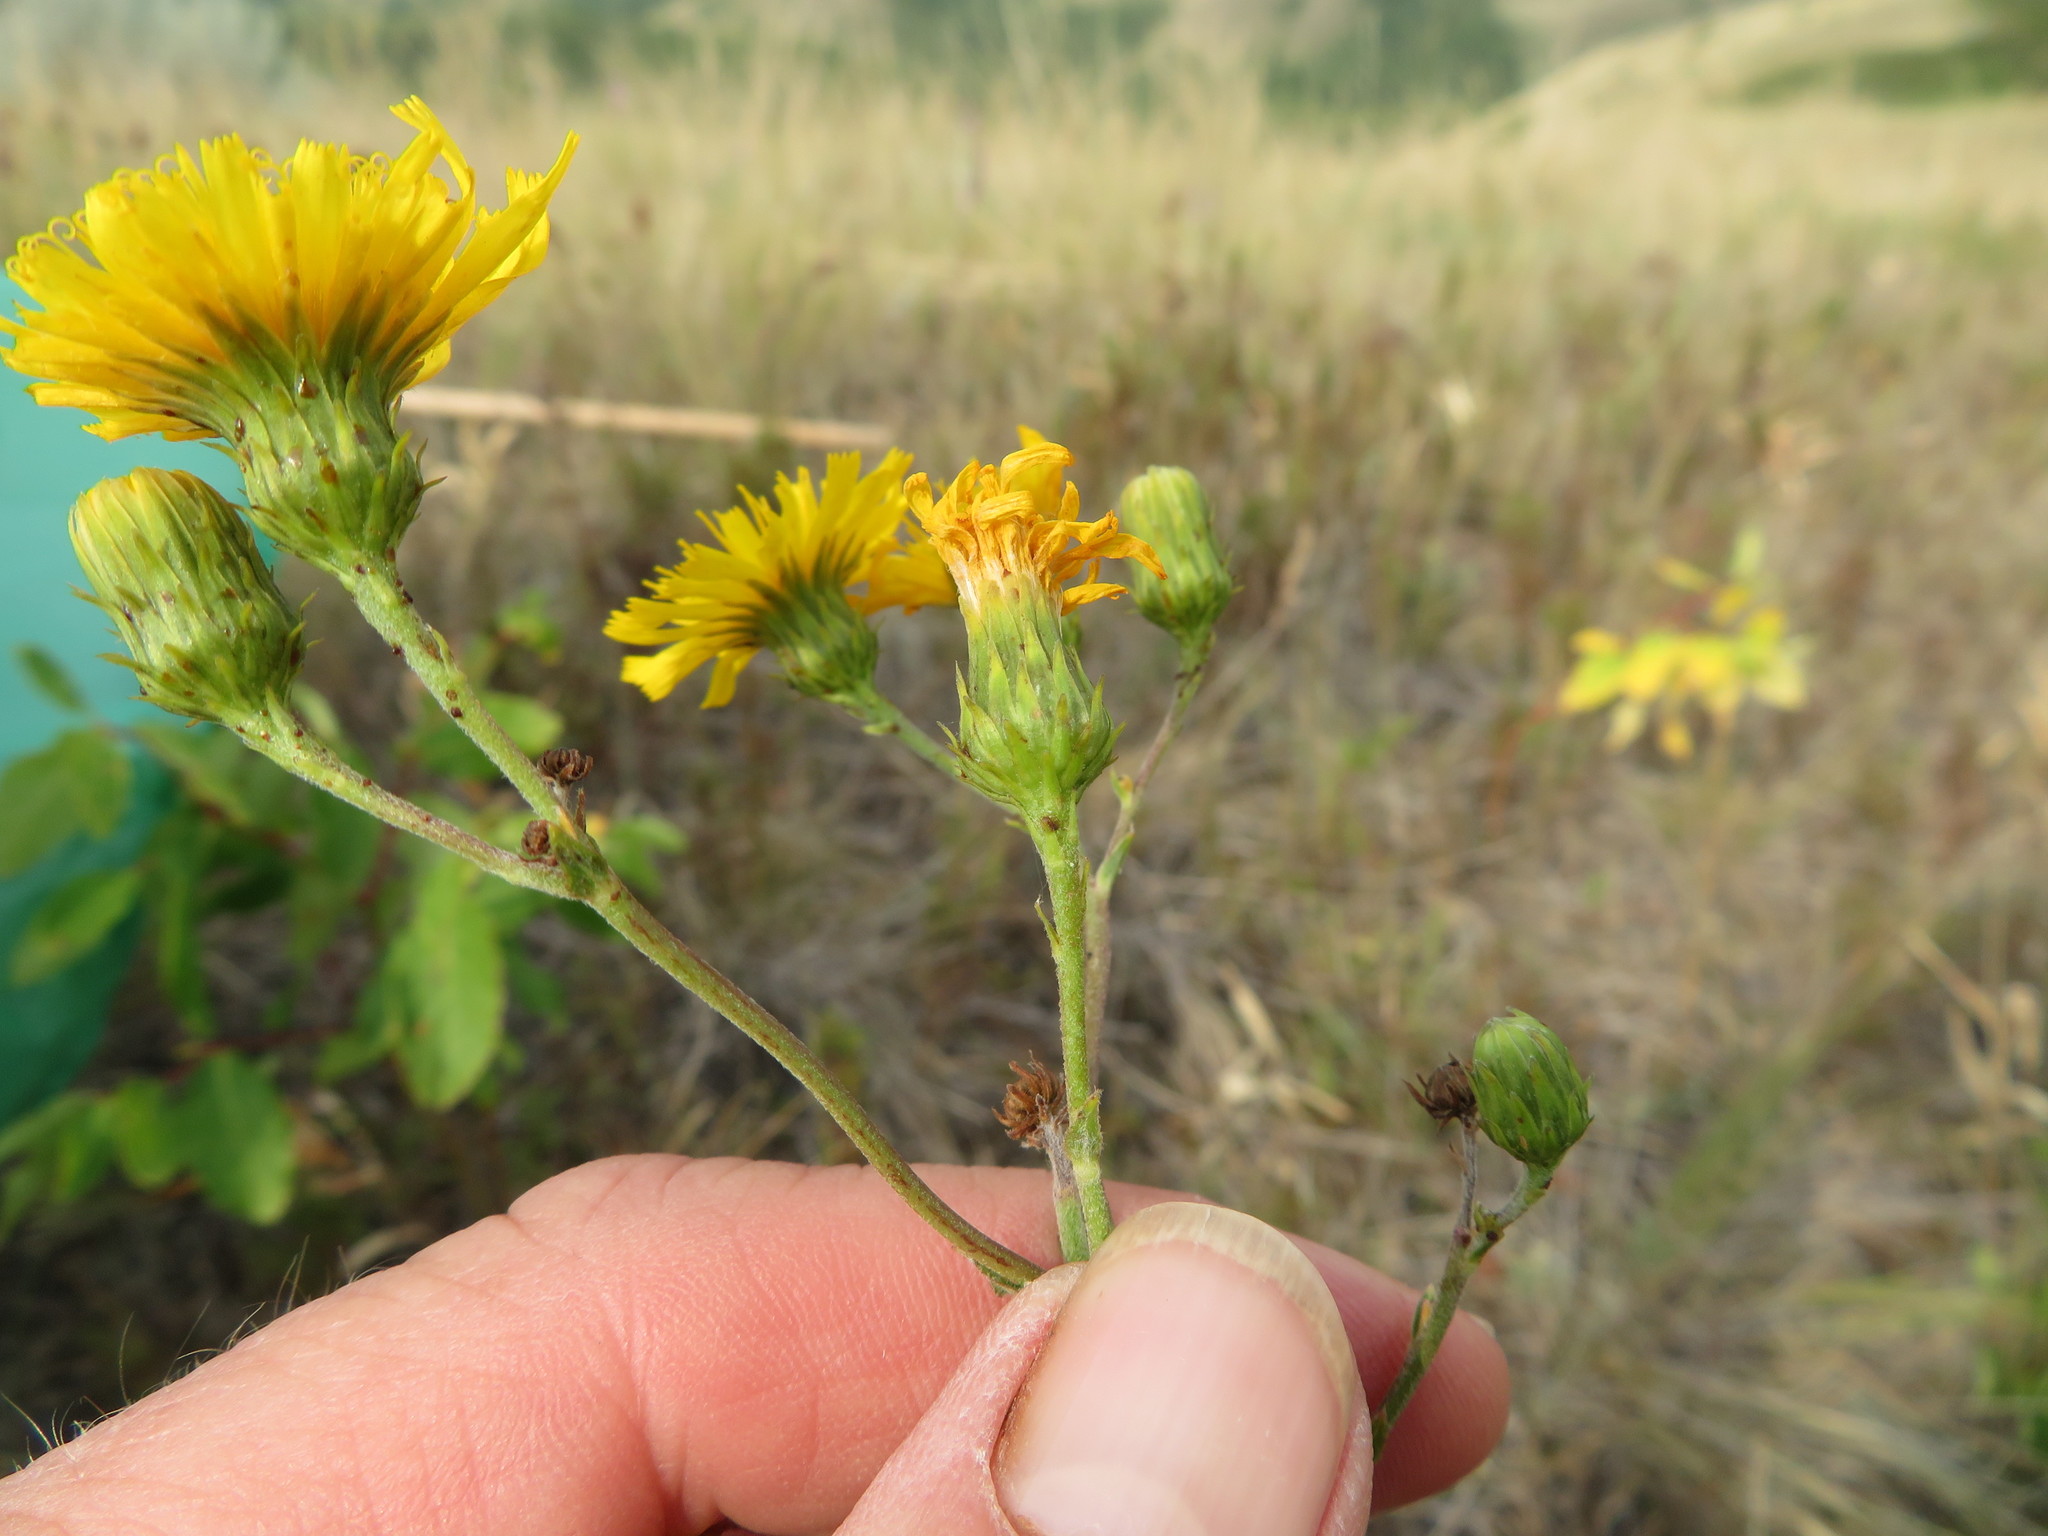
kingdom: Plantae
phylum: Tracheophyta
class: Magnoliopsida
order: Asterales
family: Asteraceae
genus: Hieracium
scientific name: Hieracium umbellatum
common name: Northern hawkweed
